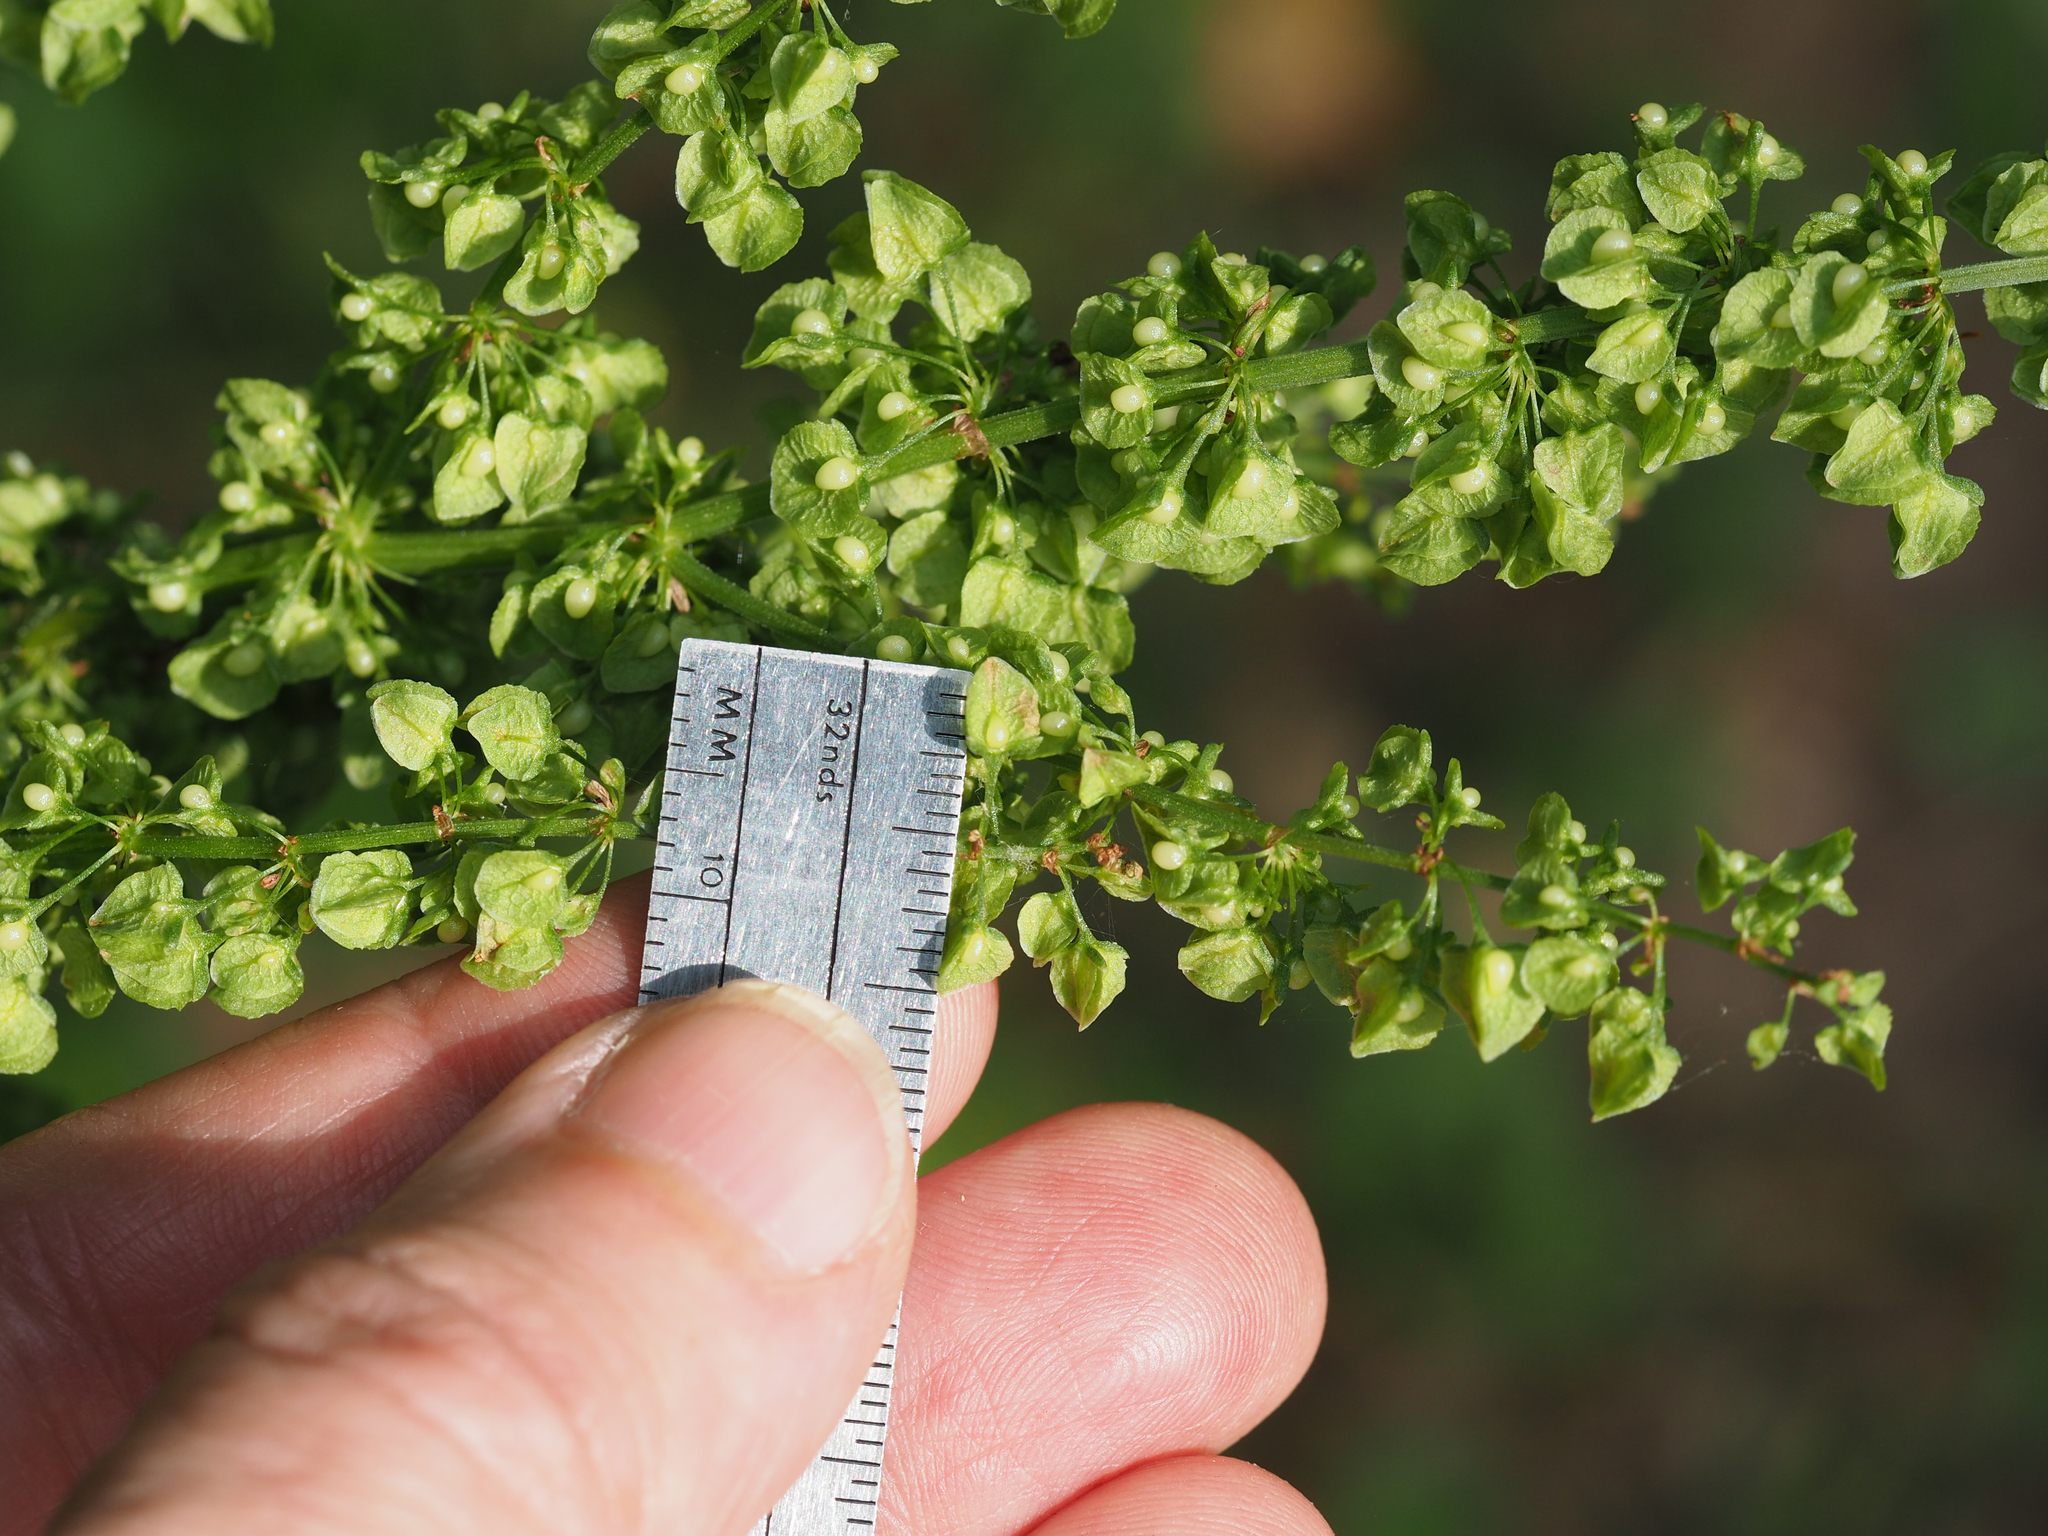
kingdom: Plantae
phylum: Tracheophyta
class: Magnoliopsida
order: Caryophyllales
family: Polygonaceae
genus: Rumex
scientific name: Rumex crispus
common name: Curled dock
